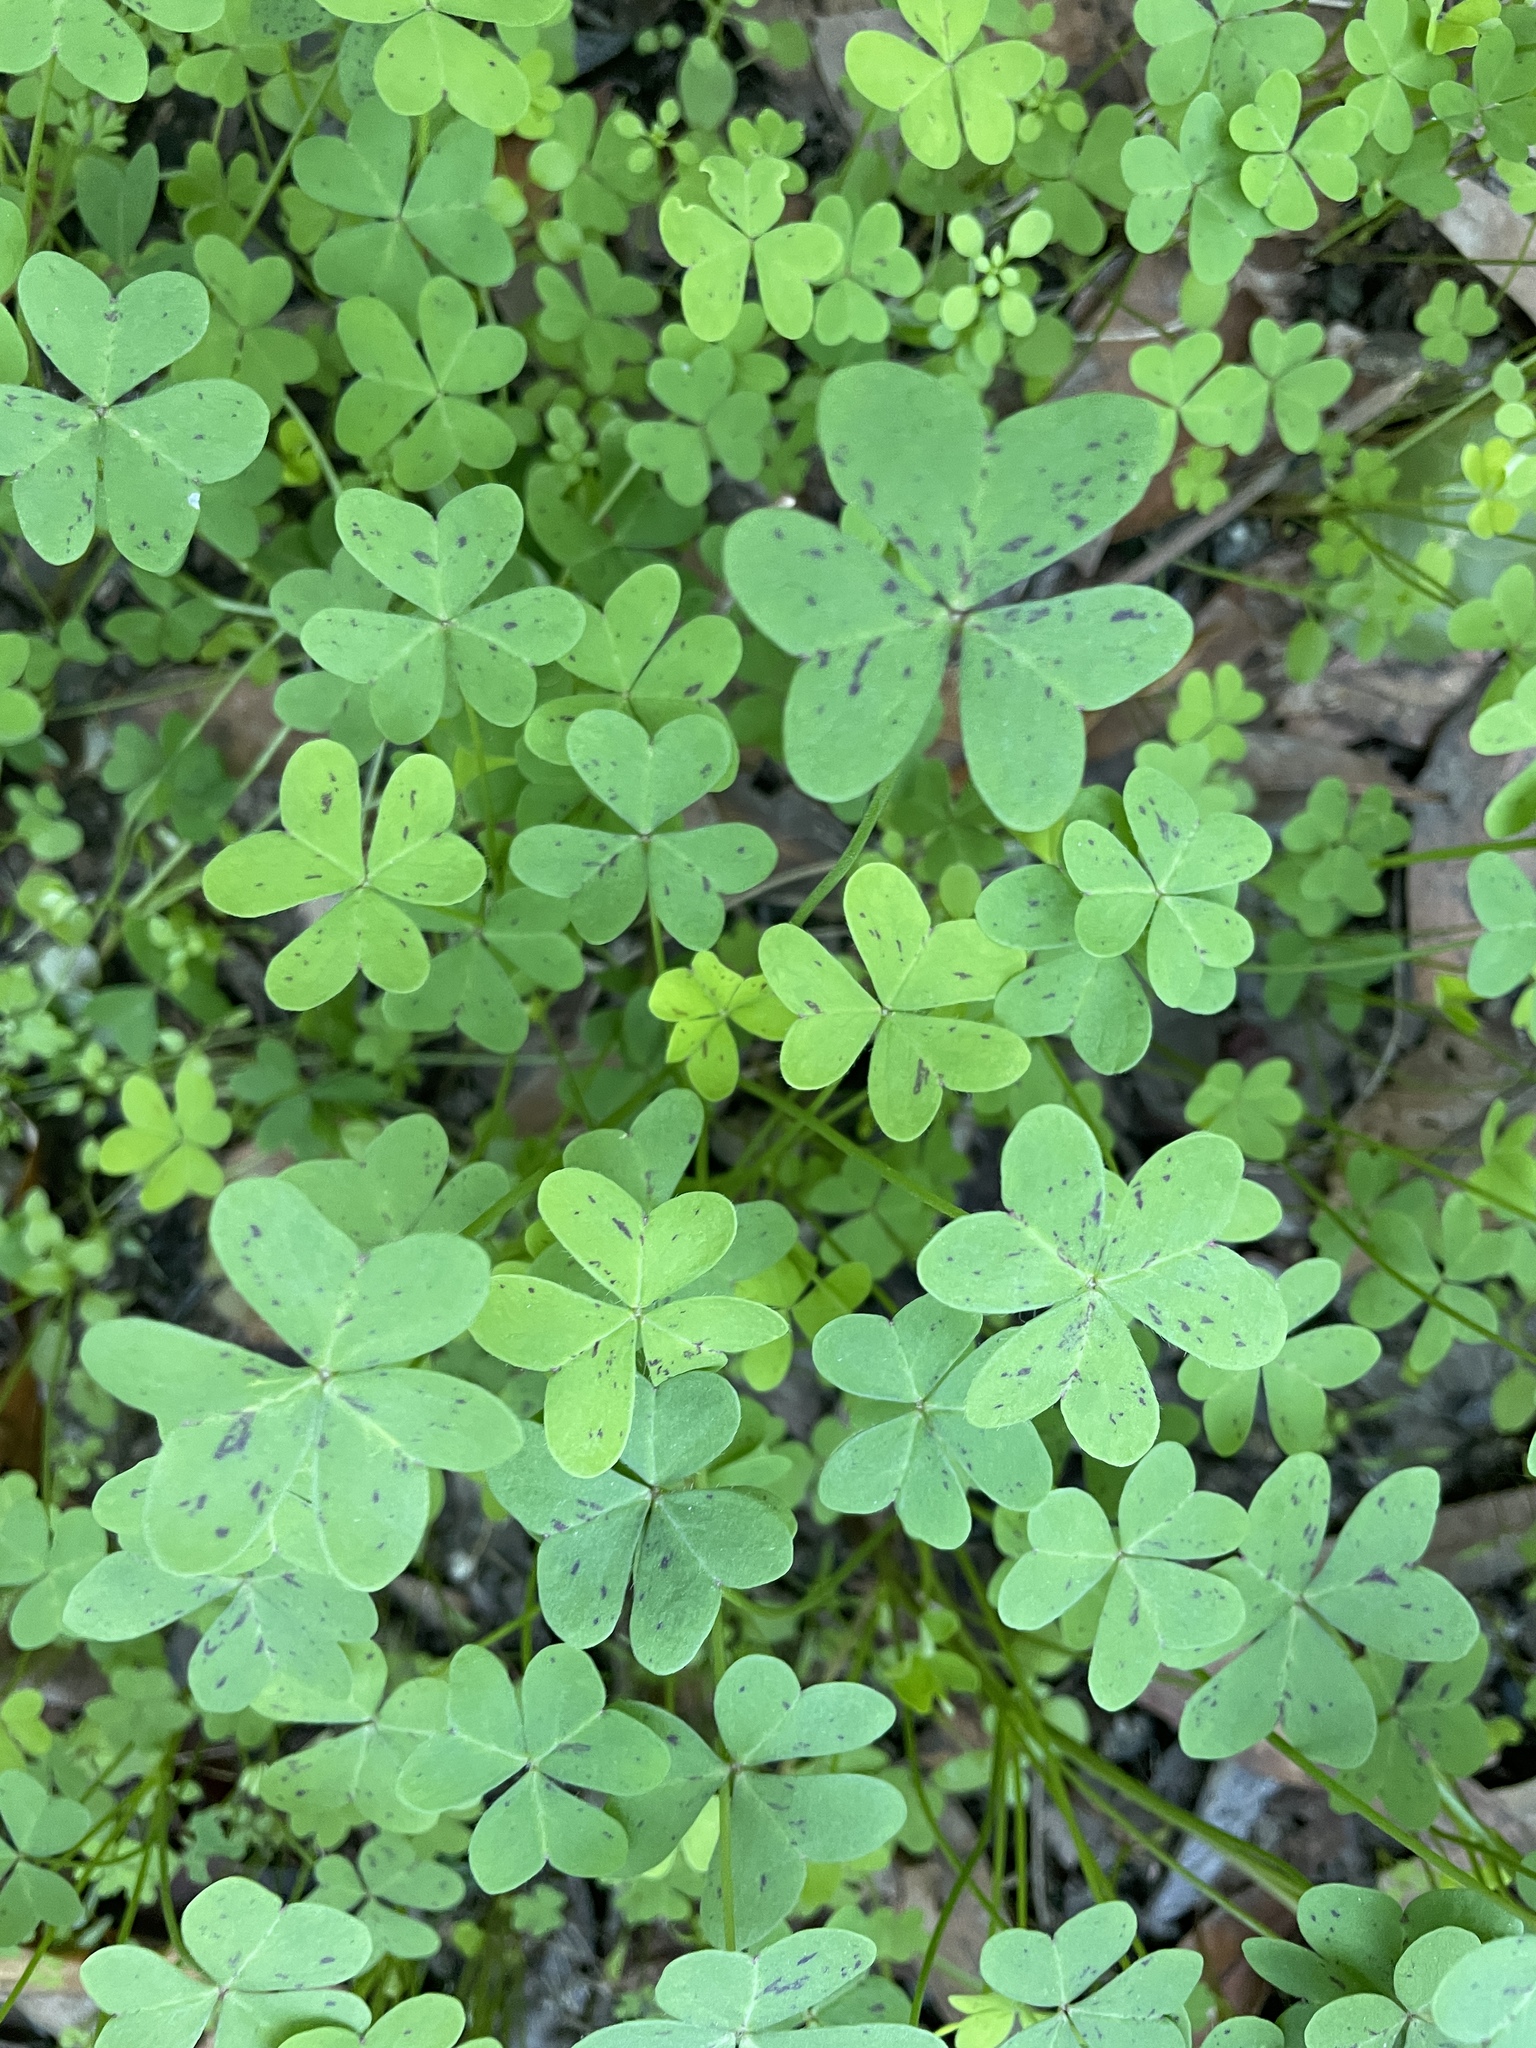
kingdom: Plantae
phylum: Tracheophyta
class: Magnoliopsida
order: Oxalidales
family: Oxalidaceae
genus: Oxalis
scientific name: Oxalis pes-caprae
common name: Bermuda-buttercup
